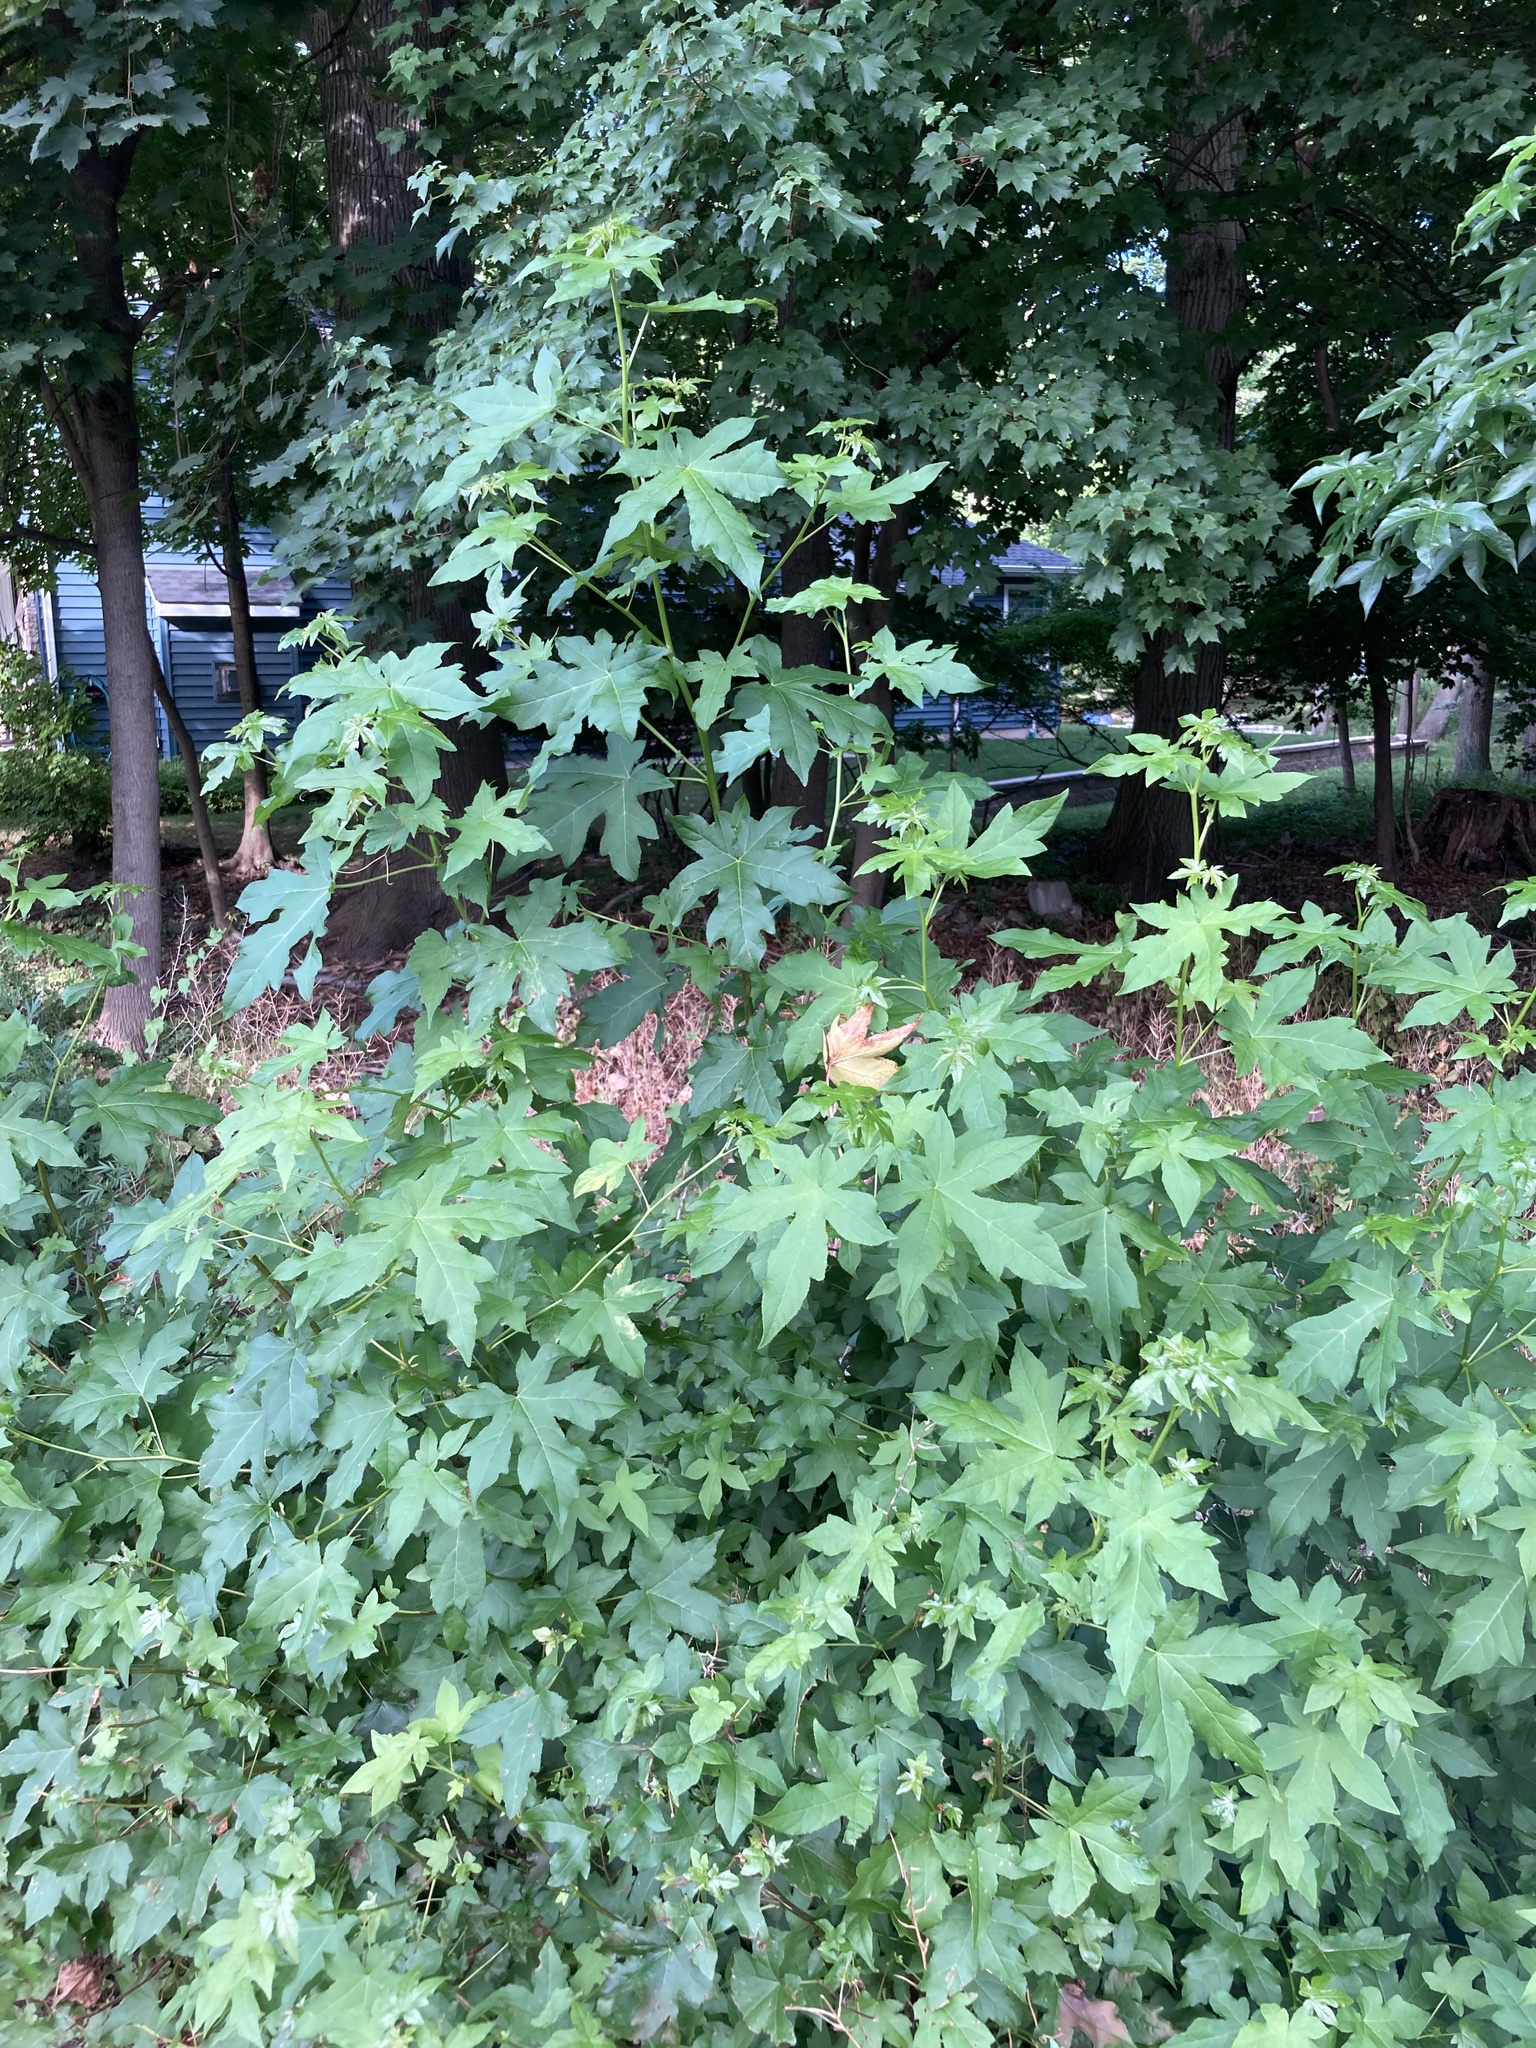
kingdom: Plantae
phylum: Tracheophyta
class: Magnoliopsida
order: Saxifragales
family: Altingiaceae
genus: Liquidambar
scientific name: Liquidambar styraciflua
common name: Sweet gum
